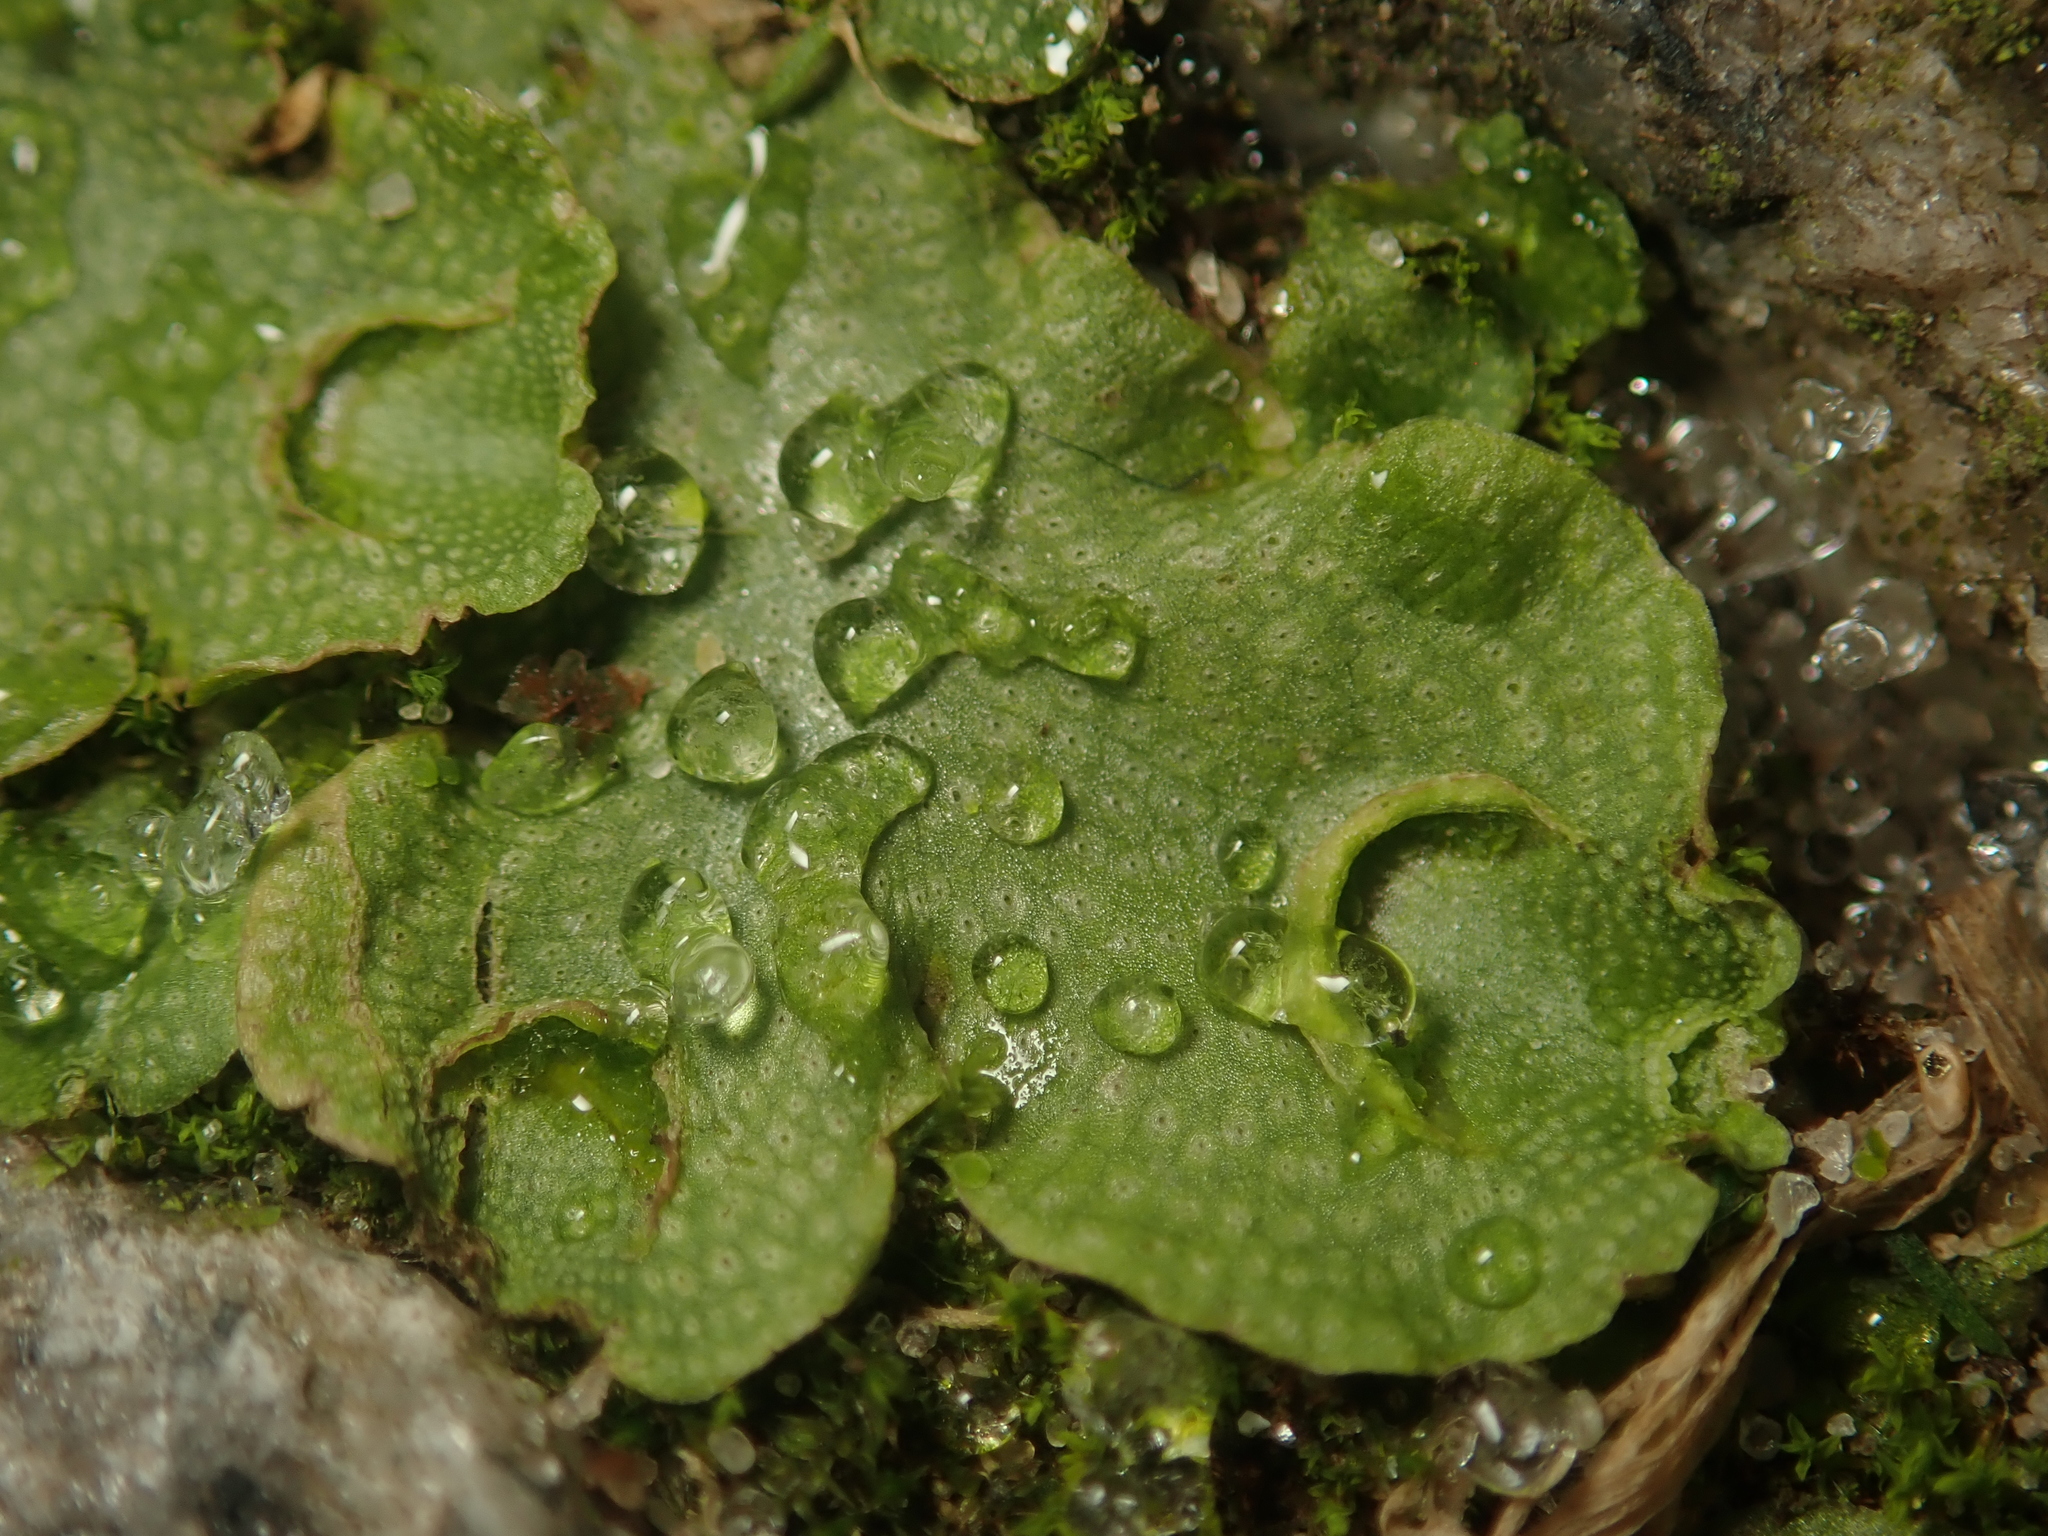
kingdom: Plantae
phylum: Marchantiophyta
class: Marchantiopsida
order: Lunulariales
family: Lunulariaceae
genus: Lunularia
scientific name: Lunularia cruciata
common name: Crescent-cup liverwort
